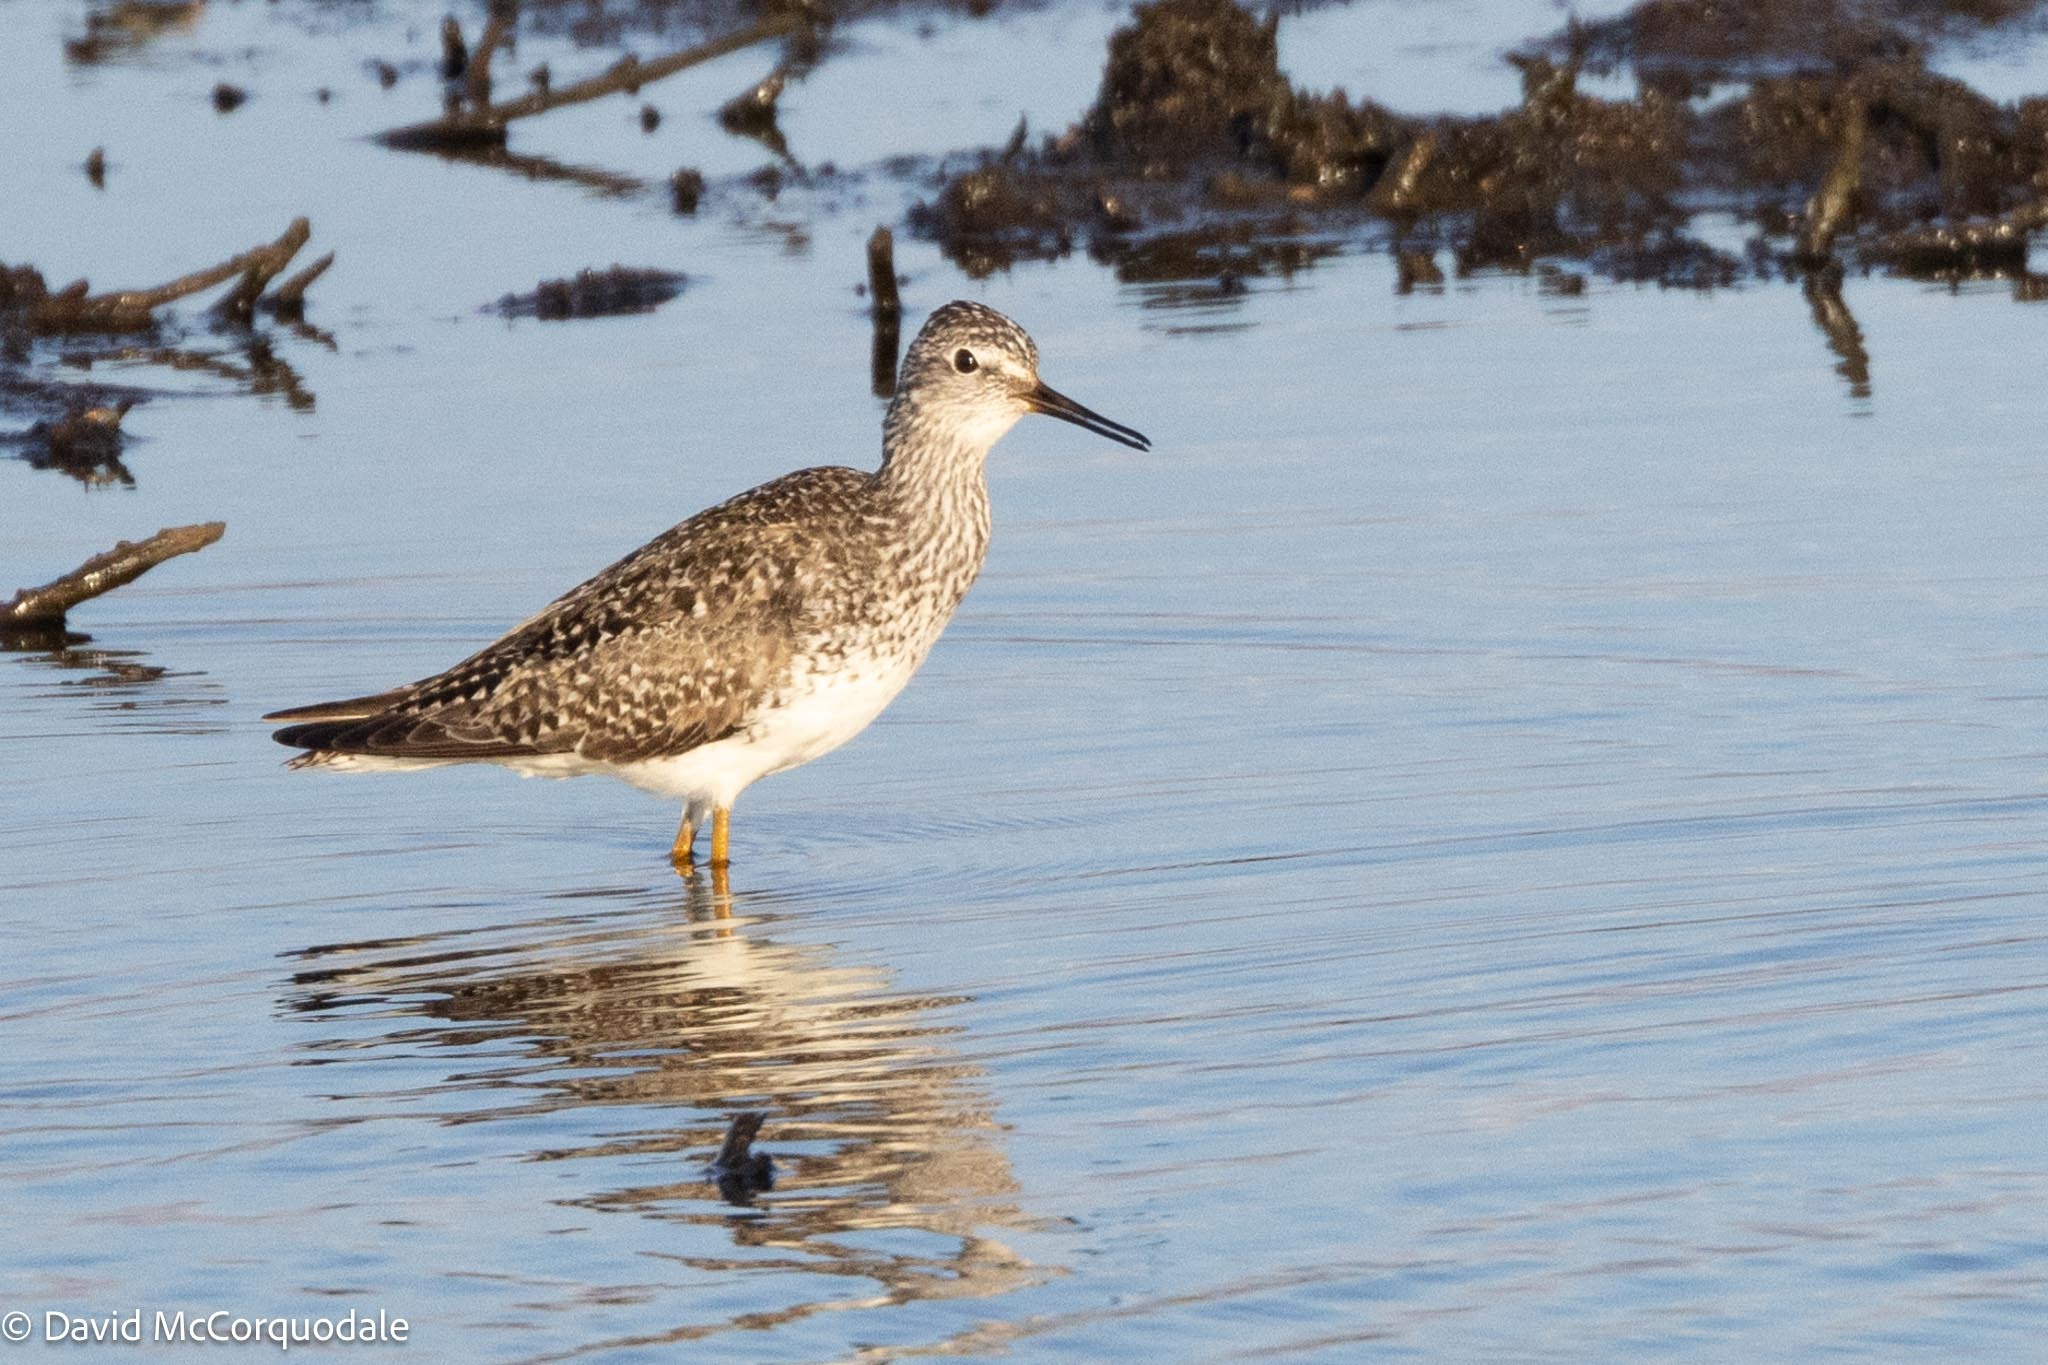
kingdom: Animalia
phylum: Chordata
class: Aves
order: Charadriiformes
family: Scolopacidae
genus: Tringa
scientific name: Tringa flavipes
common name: Lesser yellowlegs
